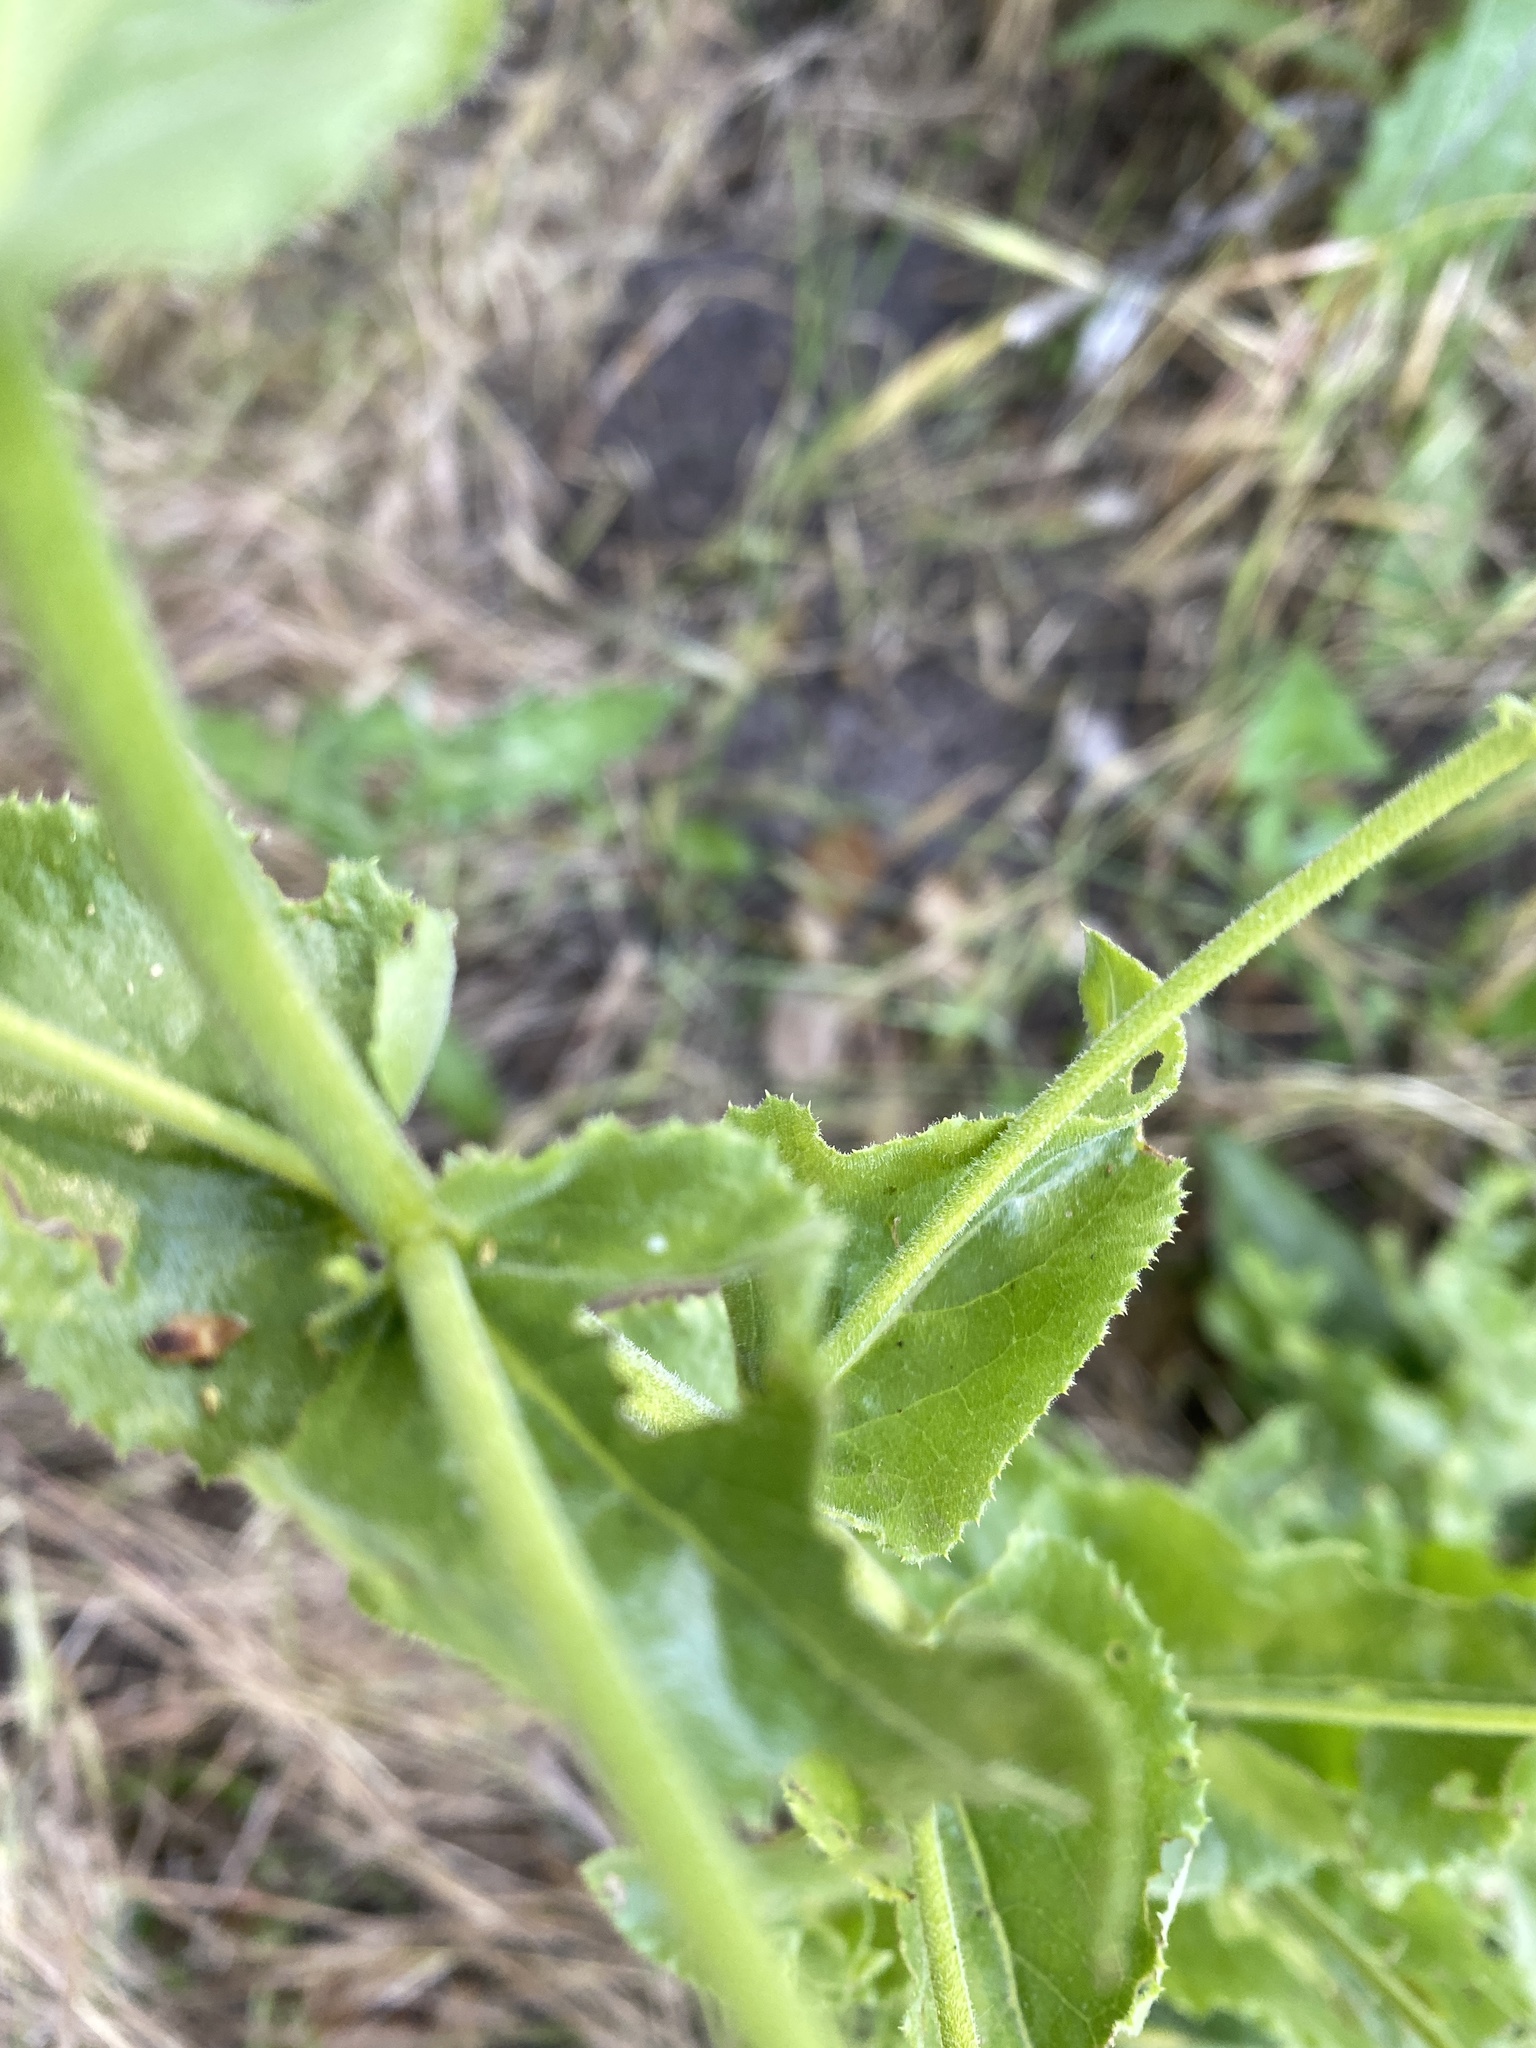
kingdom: Plantae
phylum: Tracheophyta
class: Magnoliopsida
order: Asterales
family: Asteraceae
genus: Acourtia
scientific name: Acourtia microcephala
